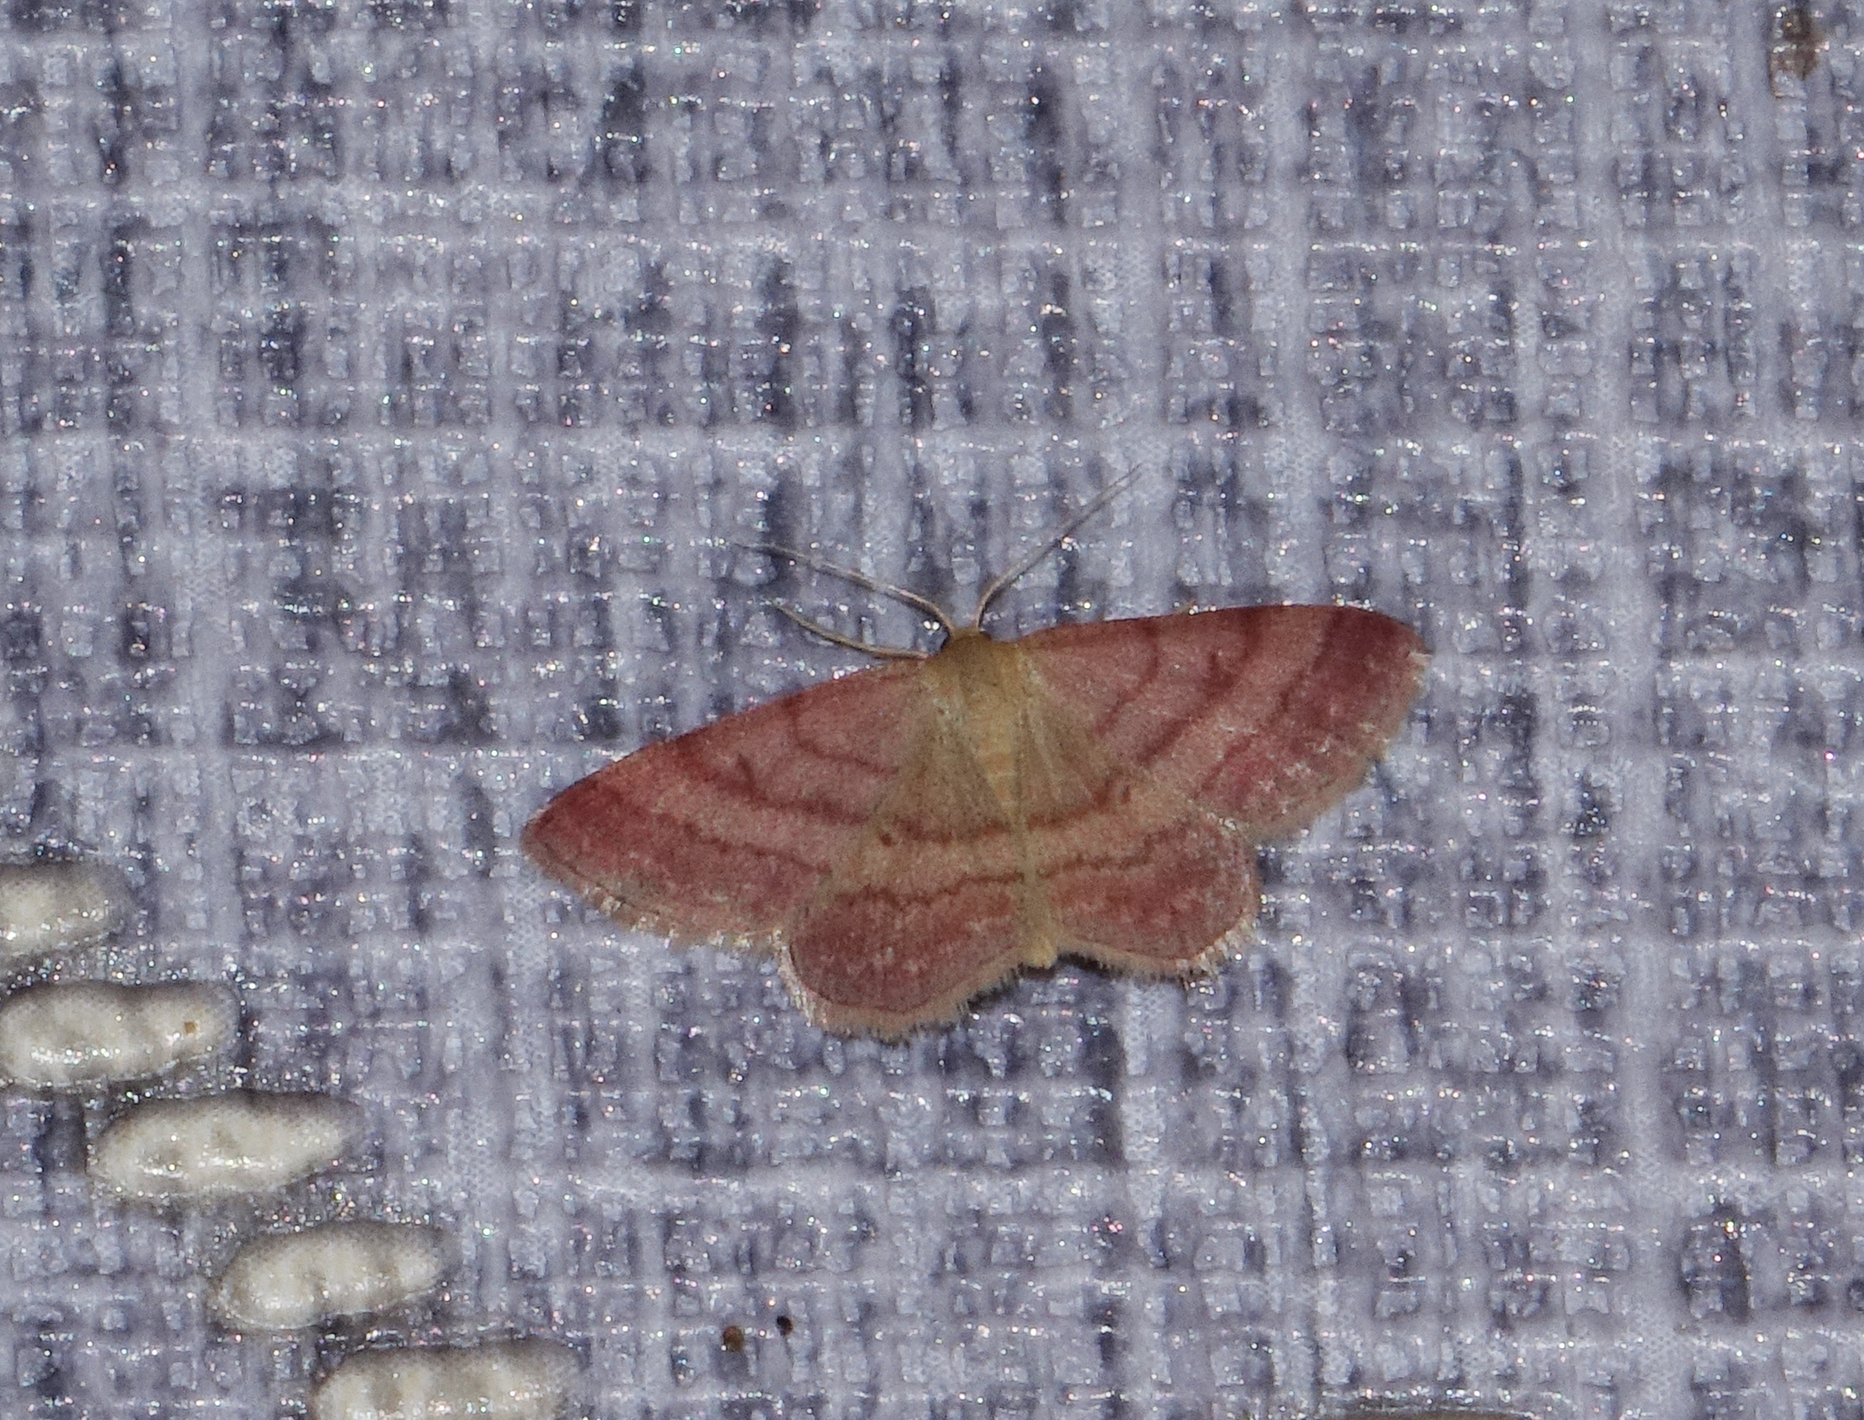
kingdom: Animalia
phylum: Arthropoda
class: Insecta
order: Lepidoptera
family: Geometridae
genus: Scopula
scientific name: Scopula rubiginata
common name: Tawny wave
